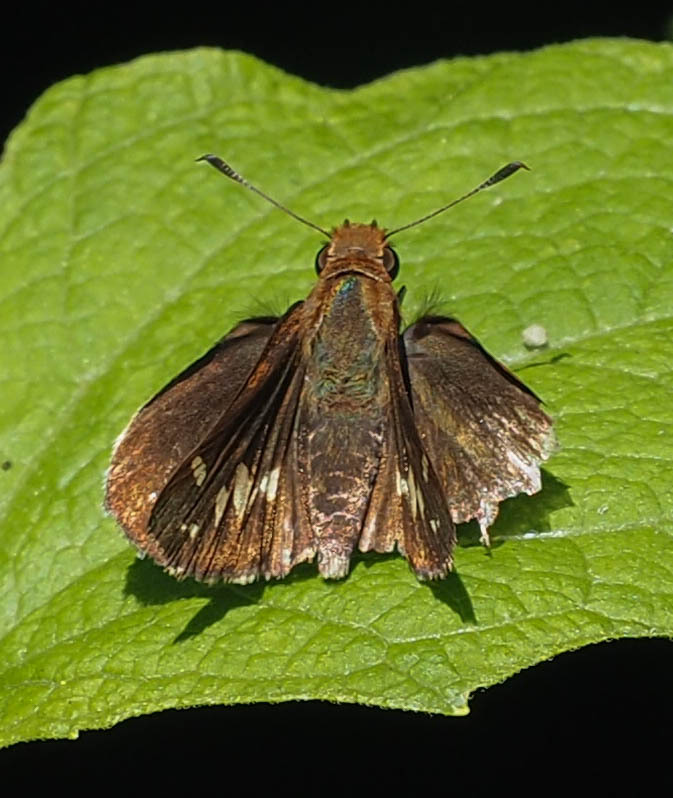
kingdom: Animalia
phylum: Arthropoda
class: Insecta
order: Lepidoptera
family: Hesperiidae
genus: Lon
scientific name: Lon zabulon
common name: Zabulon skipper
